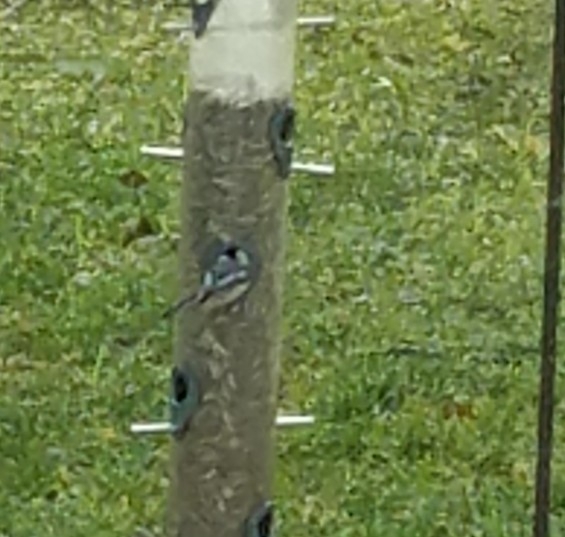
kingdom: Animalia
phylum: Chordata
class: Aves
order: Passeriformes
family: Paridae
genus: Poecile
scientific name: Poecile atricapillus
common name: Black-capped chickadee
